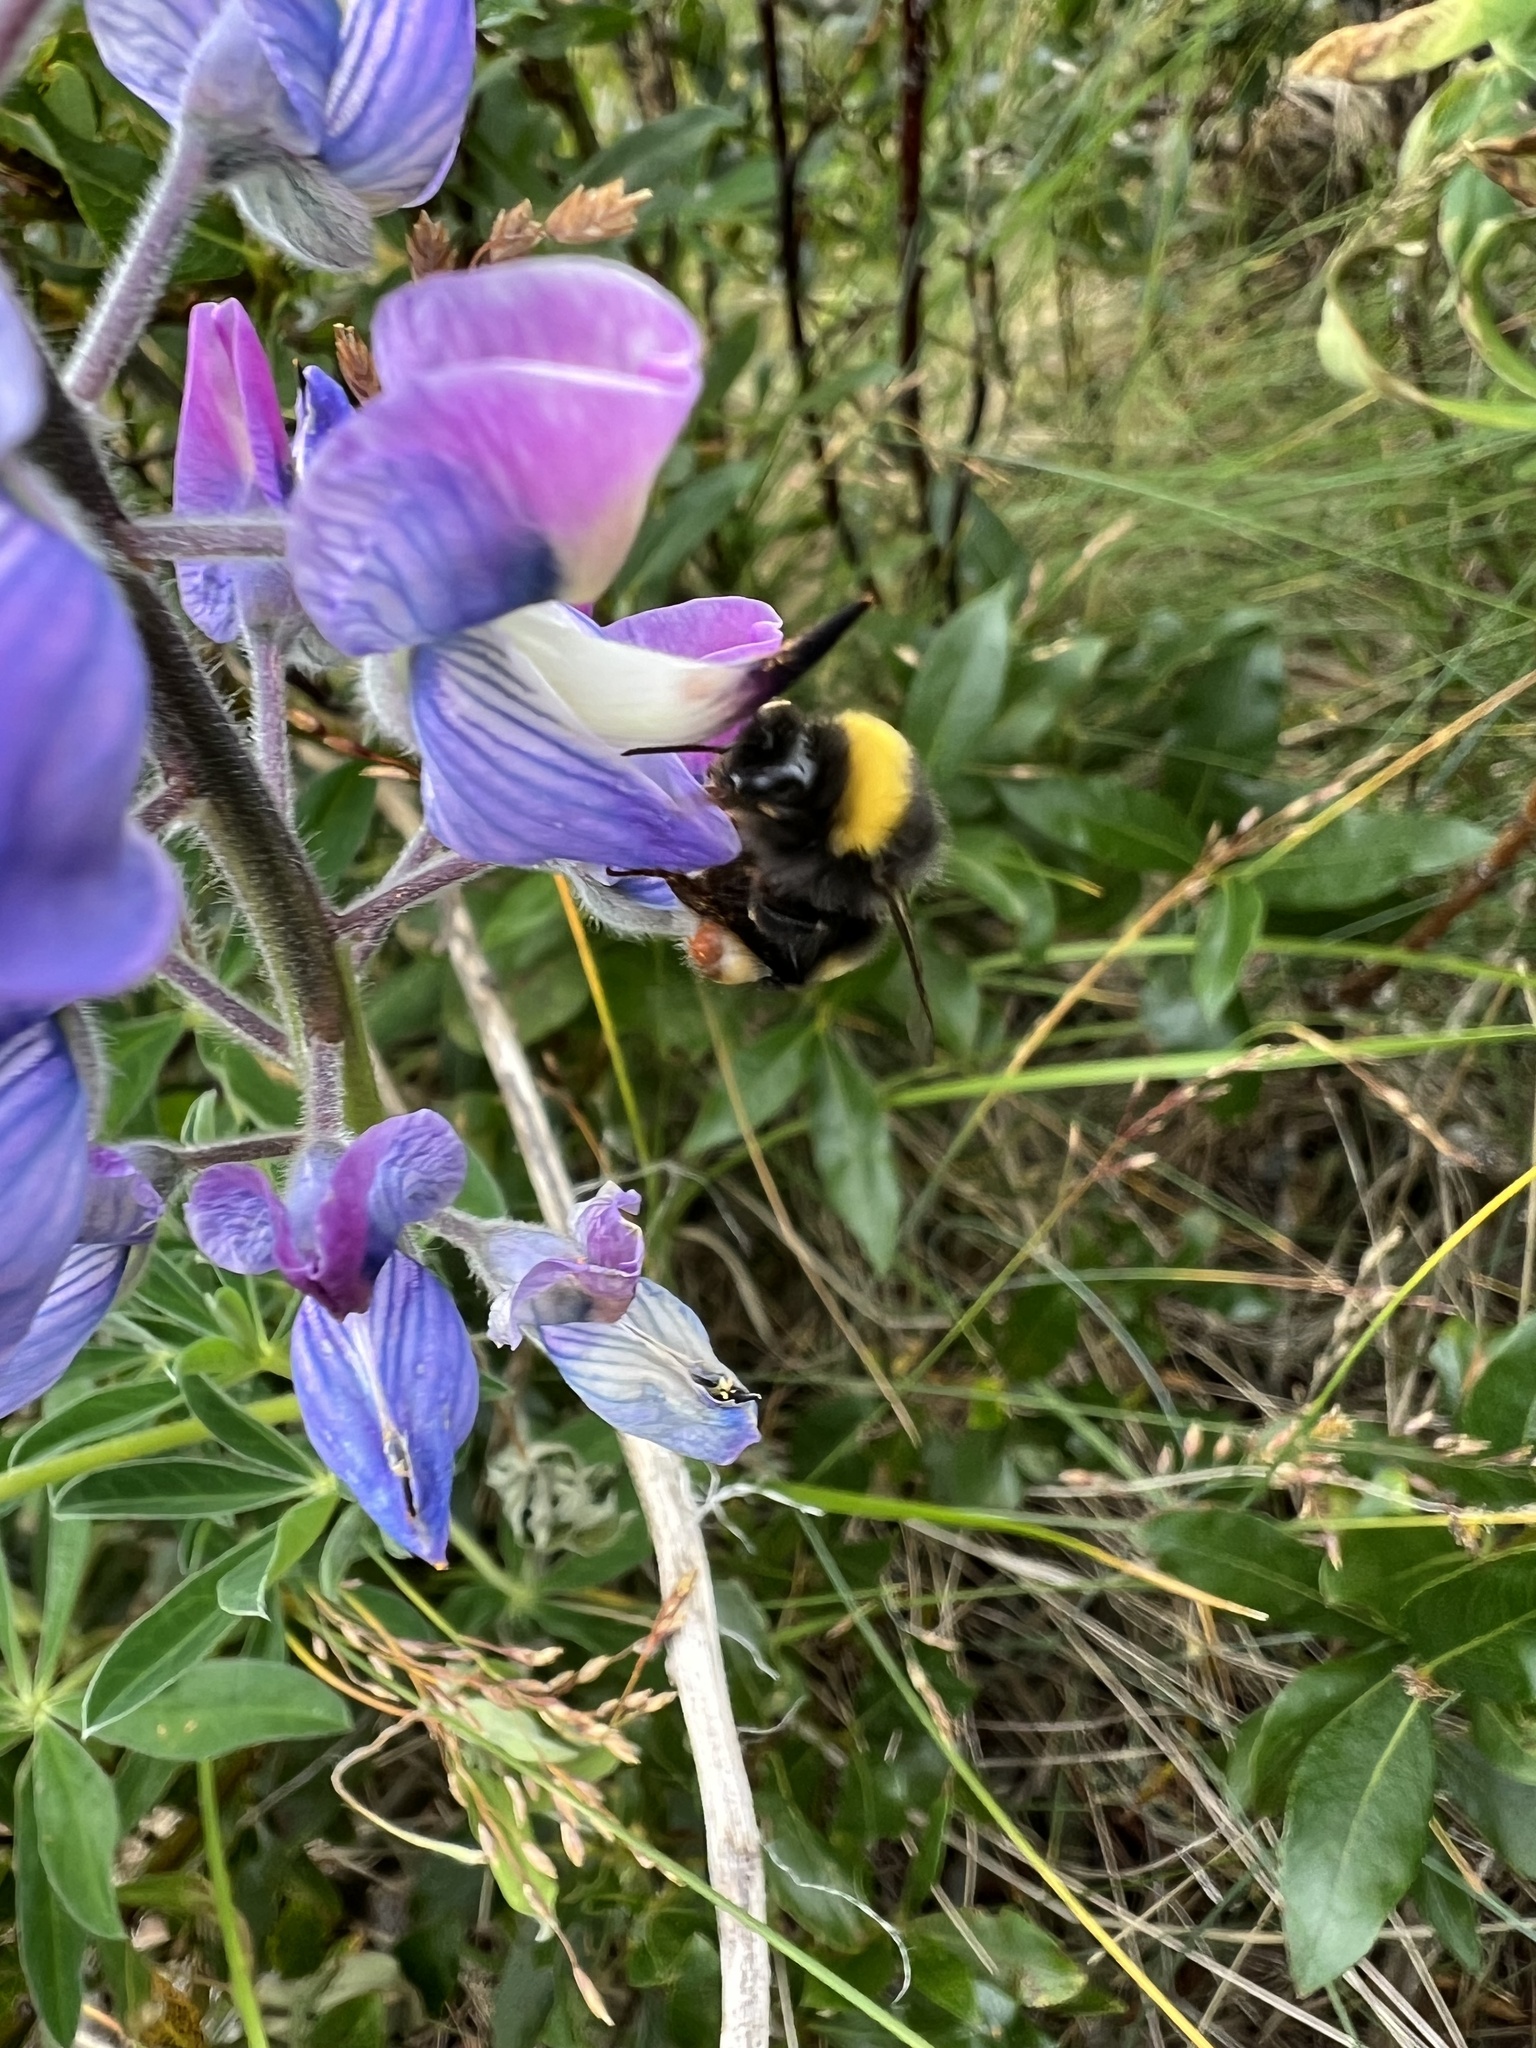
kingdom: Animalia
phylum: Arthropoda
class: Insecta
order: Hymenoptera
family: Apidae
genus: Bombus
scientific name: Bombus lucorum
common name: White-tailed bumblebee
